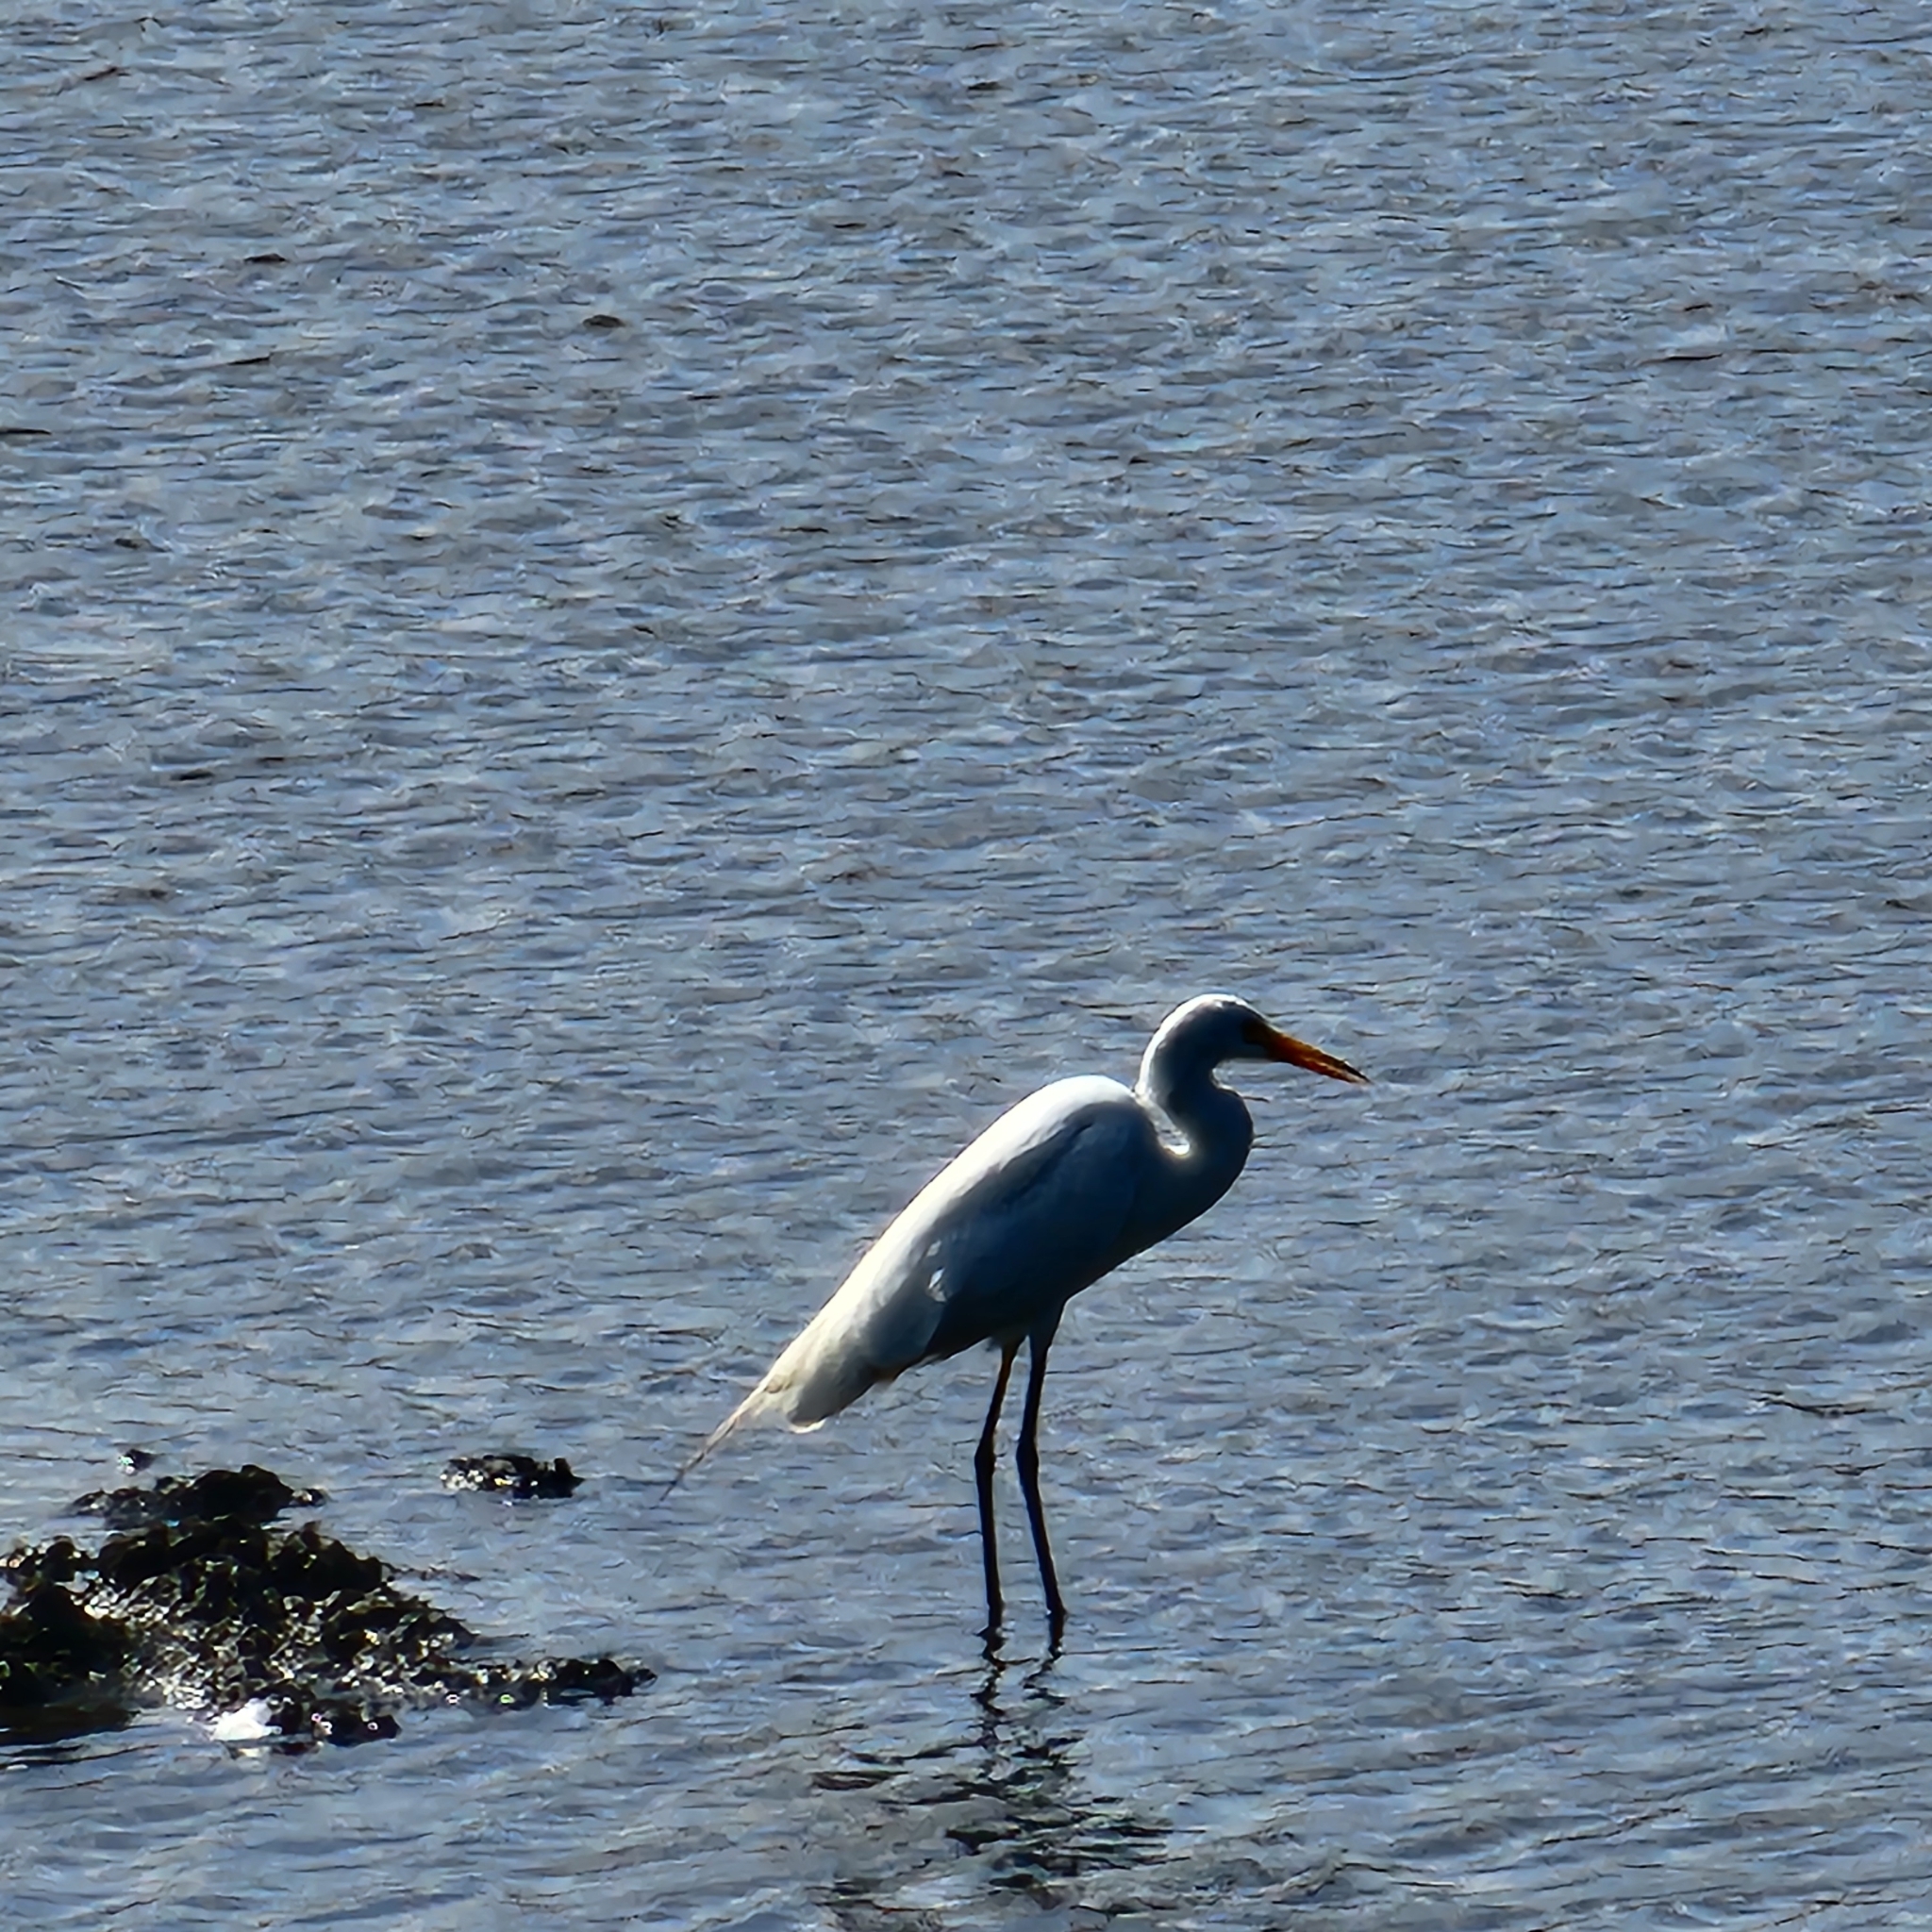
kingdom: Animalia
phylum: Chordata
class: Aves
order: Pelecaniformes
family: Ardeidae
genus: Egretta
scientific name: Egretta intermedia
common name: Intermediate egret
